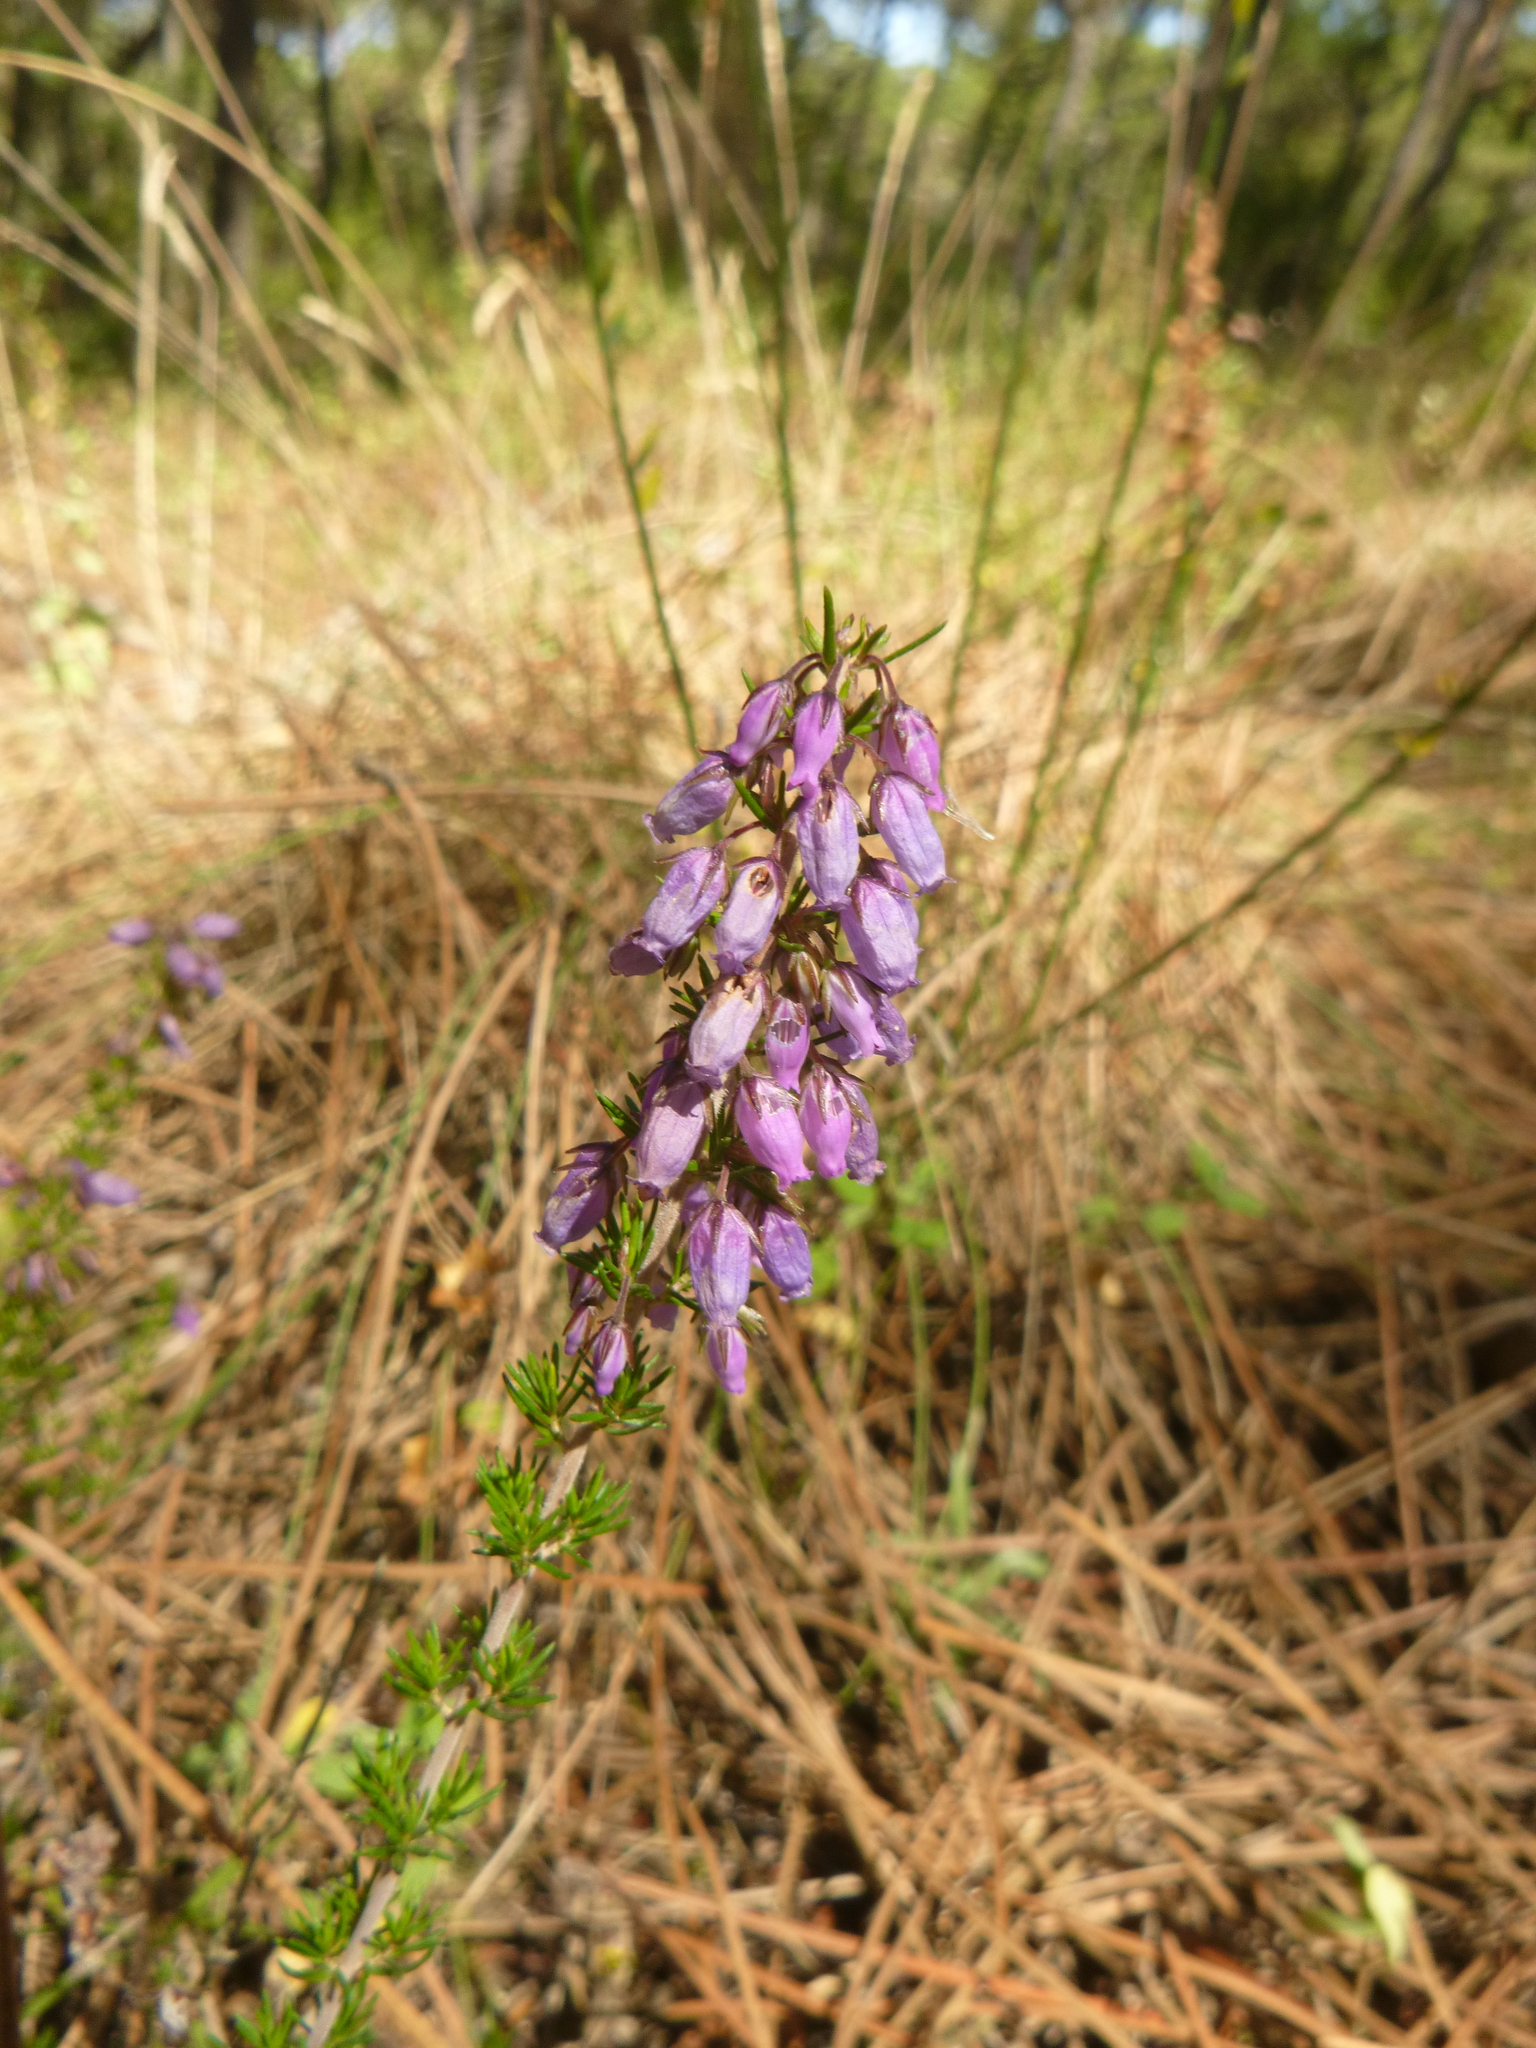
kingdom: Plantae
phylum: Tracheophyta
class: Magnoliopsida
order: Ericales
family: Ericaceae
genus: Erica
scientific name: Erica cinerea
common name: Bell heather
